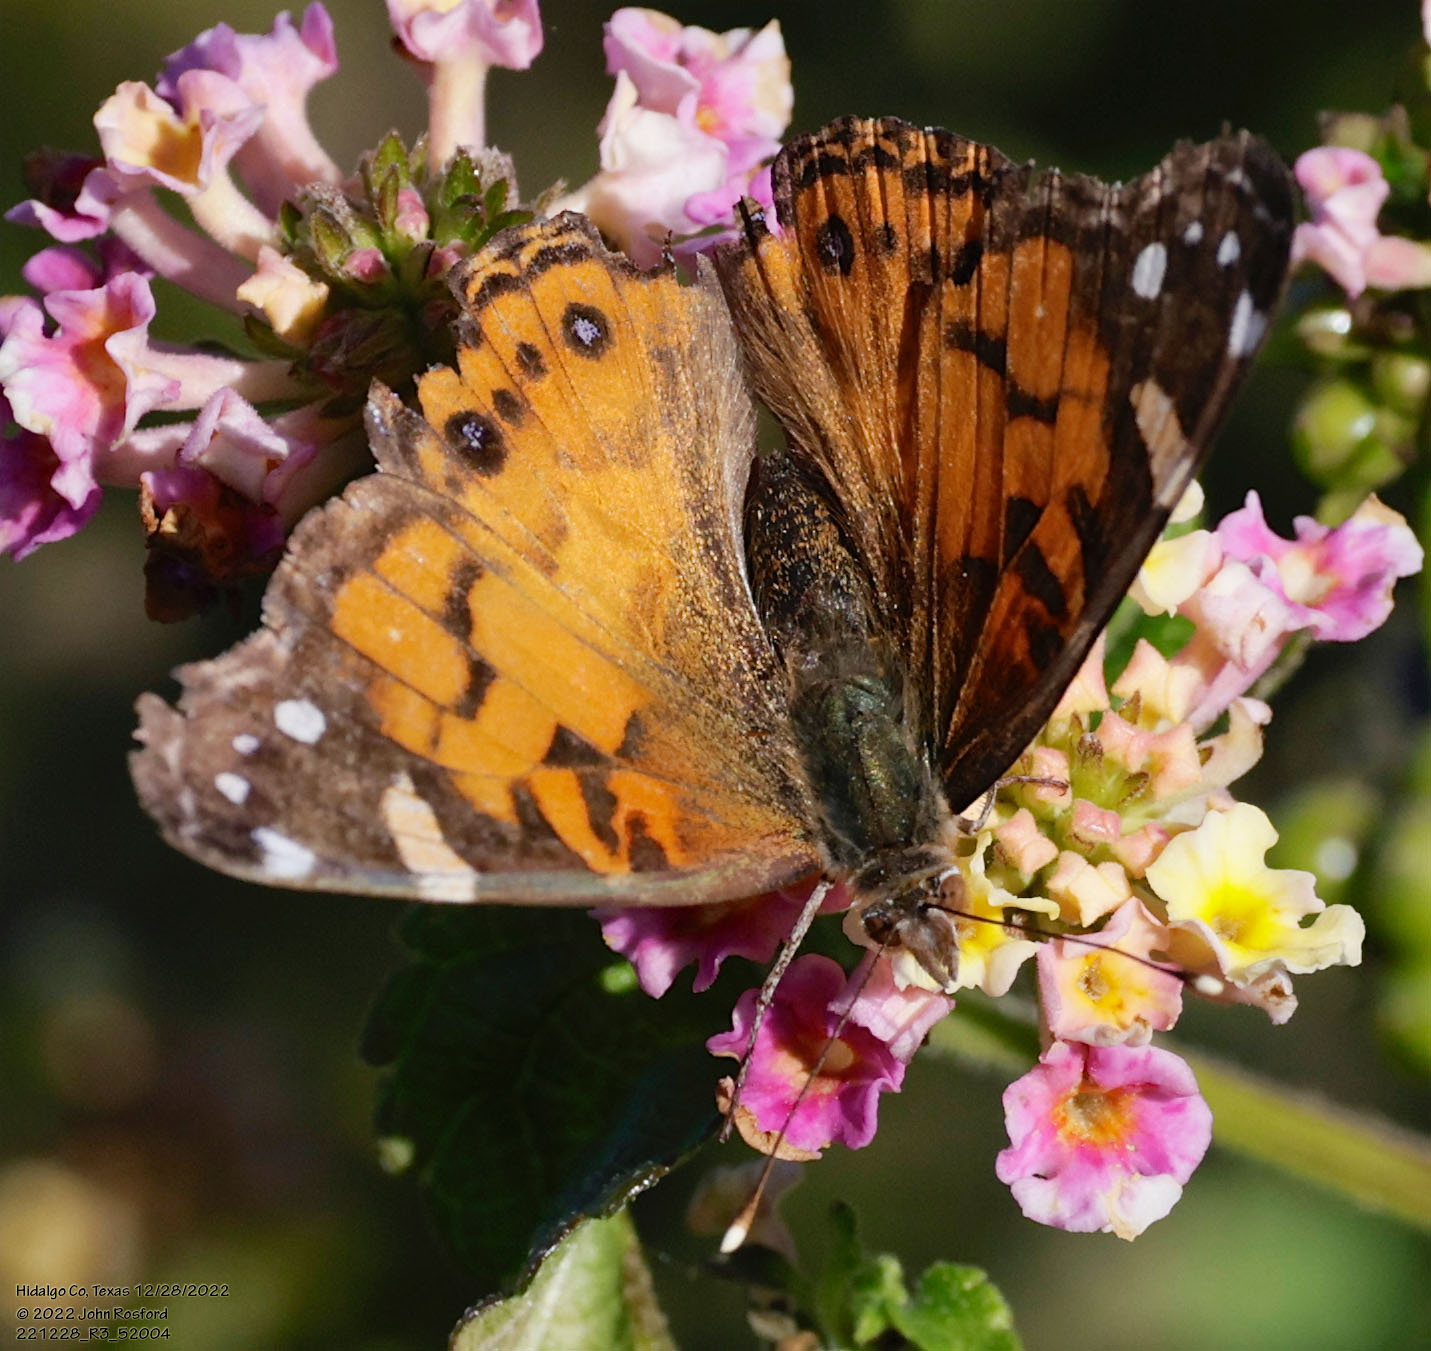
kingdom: Animalia
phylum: Arthropoda
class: Insecta
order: Lepidoptera
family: Nymphalidae
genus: Vanessa
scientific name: Vanessa virginiensis
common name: American lady
